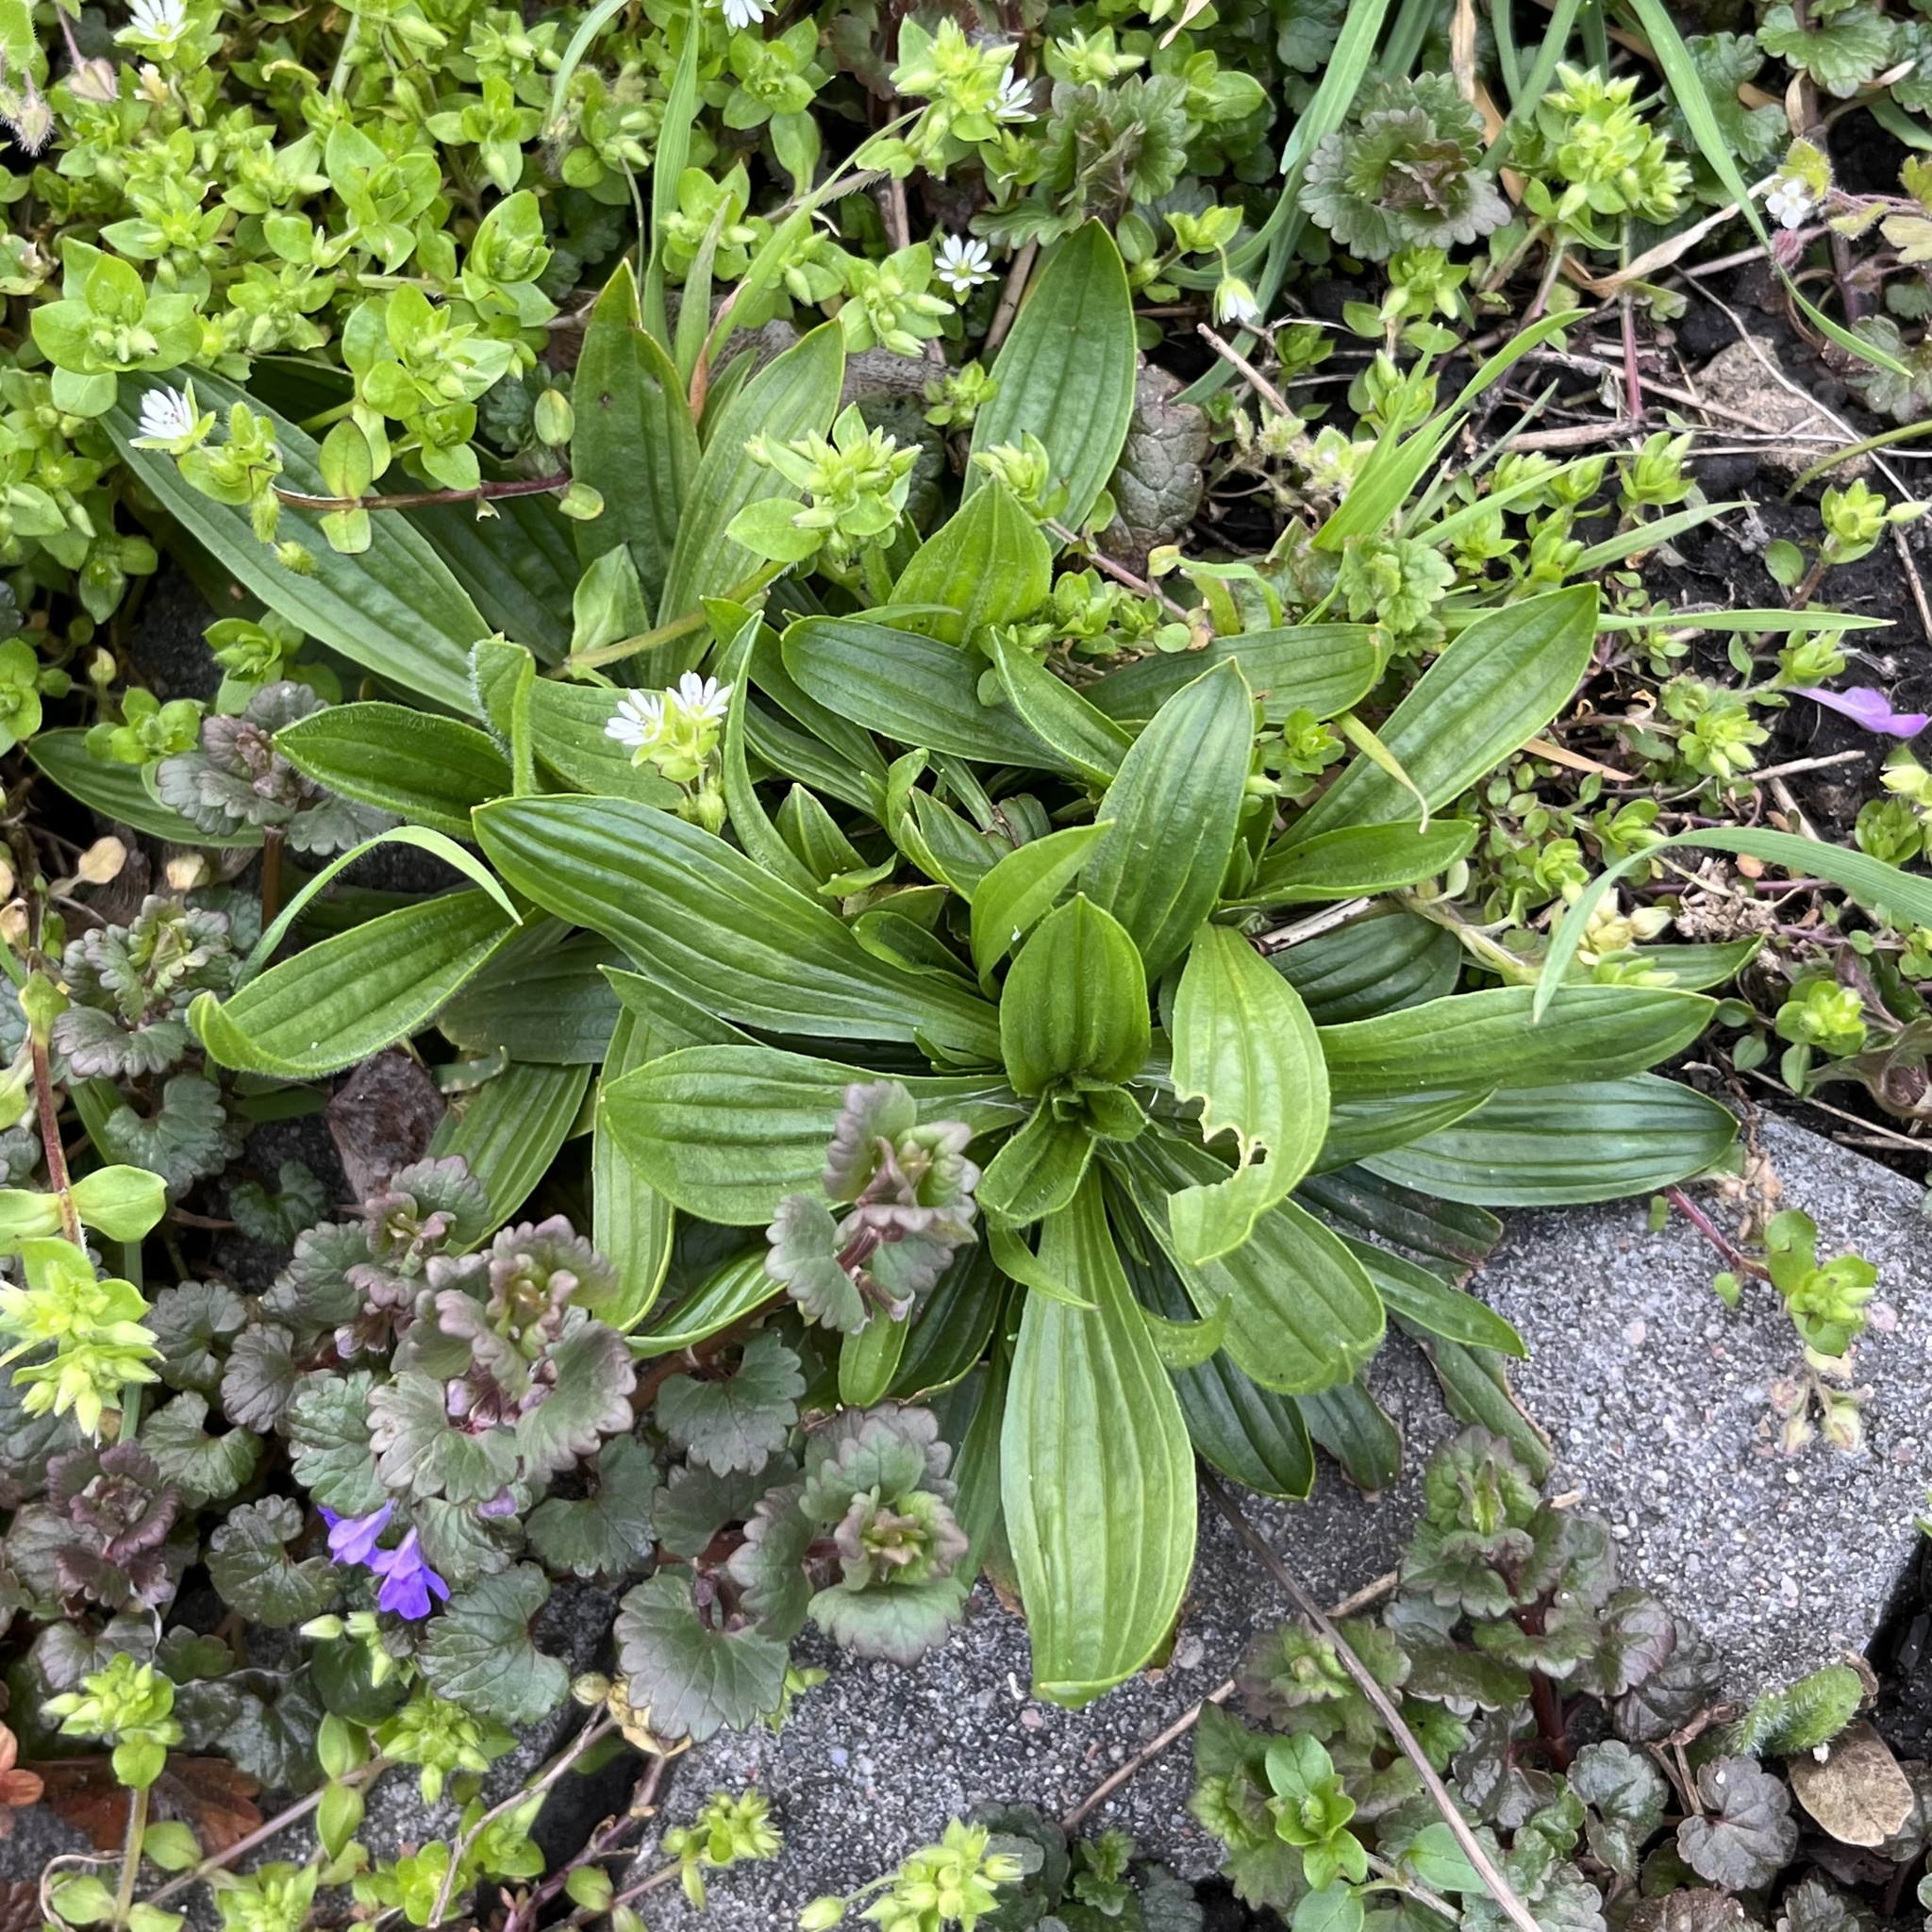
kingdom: Plantae
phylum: Tracheophyta
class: Magnoliopsida
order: Lamiales
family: Plantaginaceae
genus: Plantago
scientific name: Plantago lanceolata
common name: Ribwort plantain
